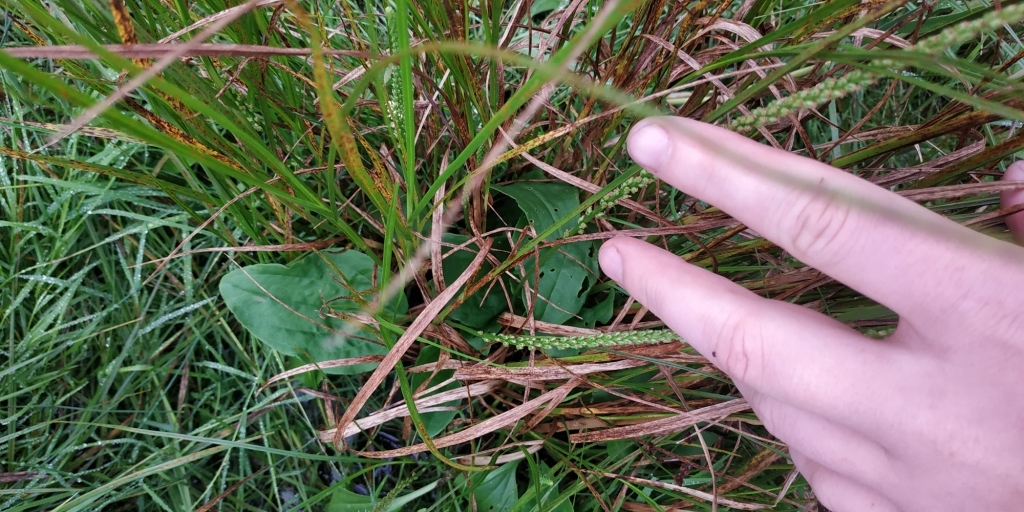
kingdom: Plantae
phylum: Tracheophyta
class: Magnoliopsida
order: Lamiales
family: Plantaginaceae
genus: Plantago
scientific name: Plantago major
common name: Common plantain
